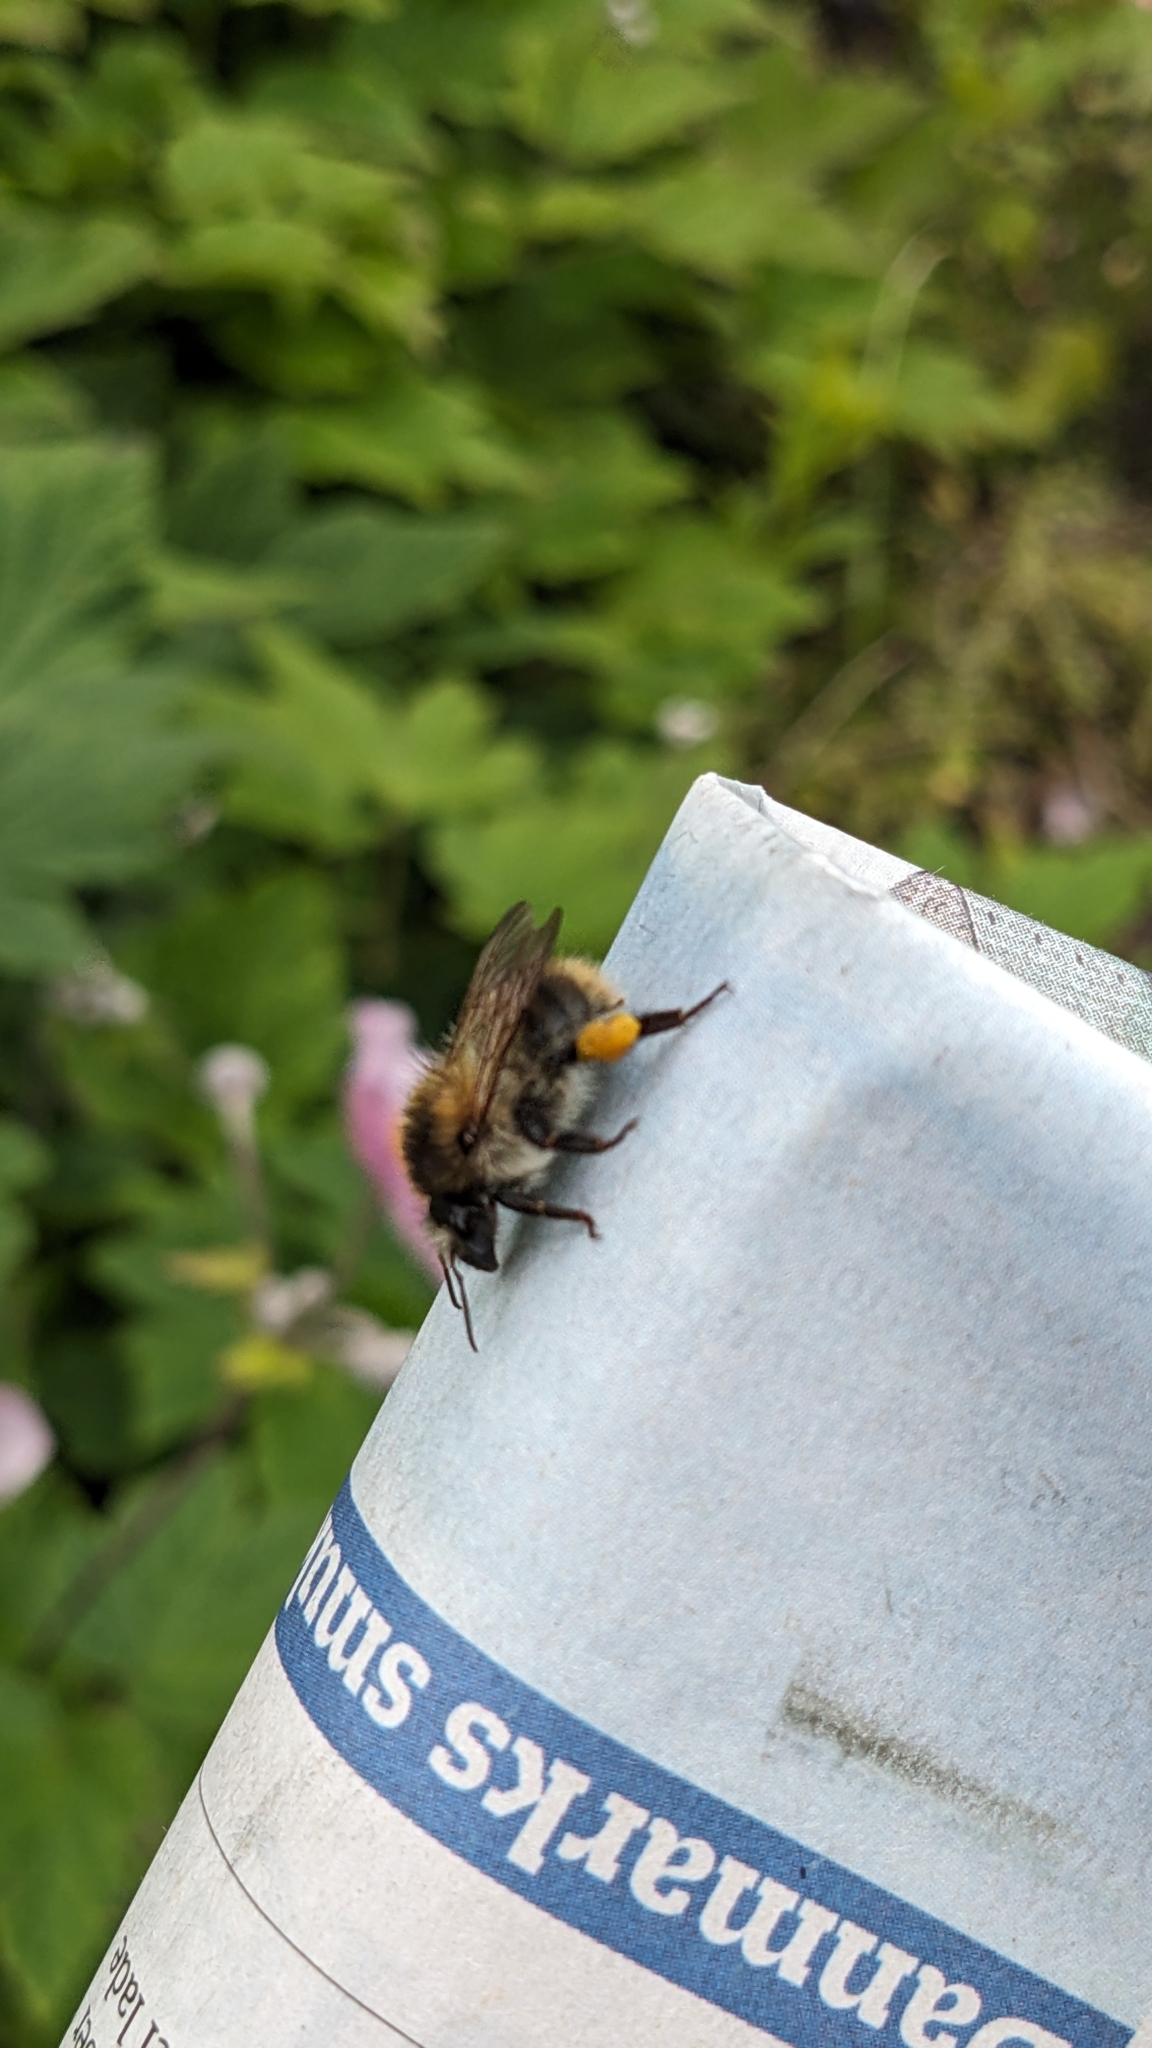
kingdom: Animalia
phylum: Arthropoda
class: Insecta
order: Hymenoptera
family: Apidae
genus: Bombus
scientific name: Bombus pascuorum
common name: Common carder bee
